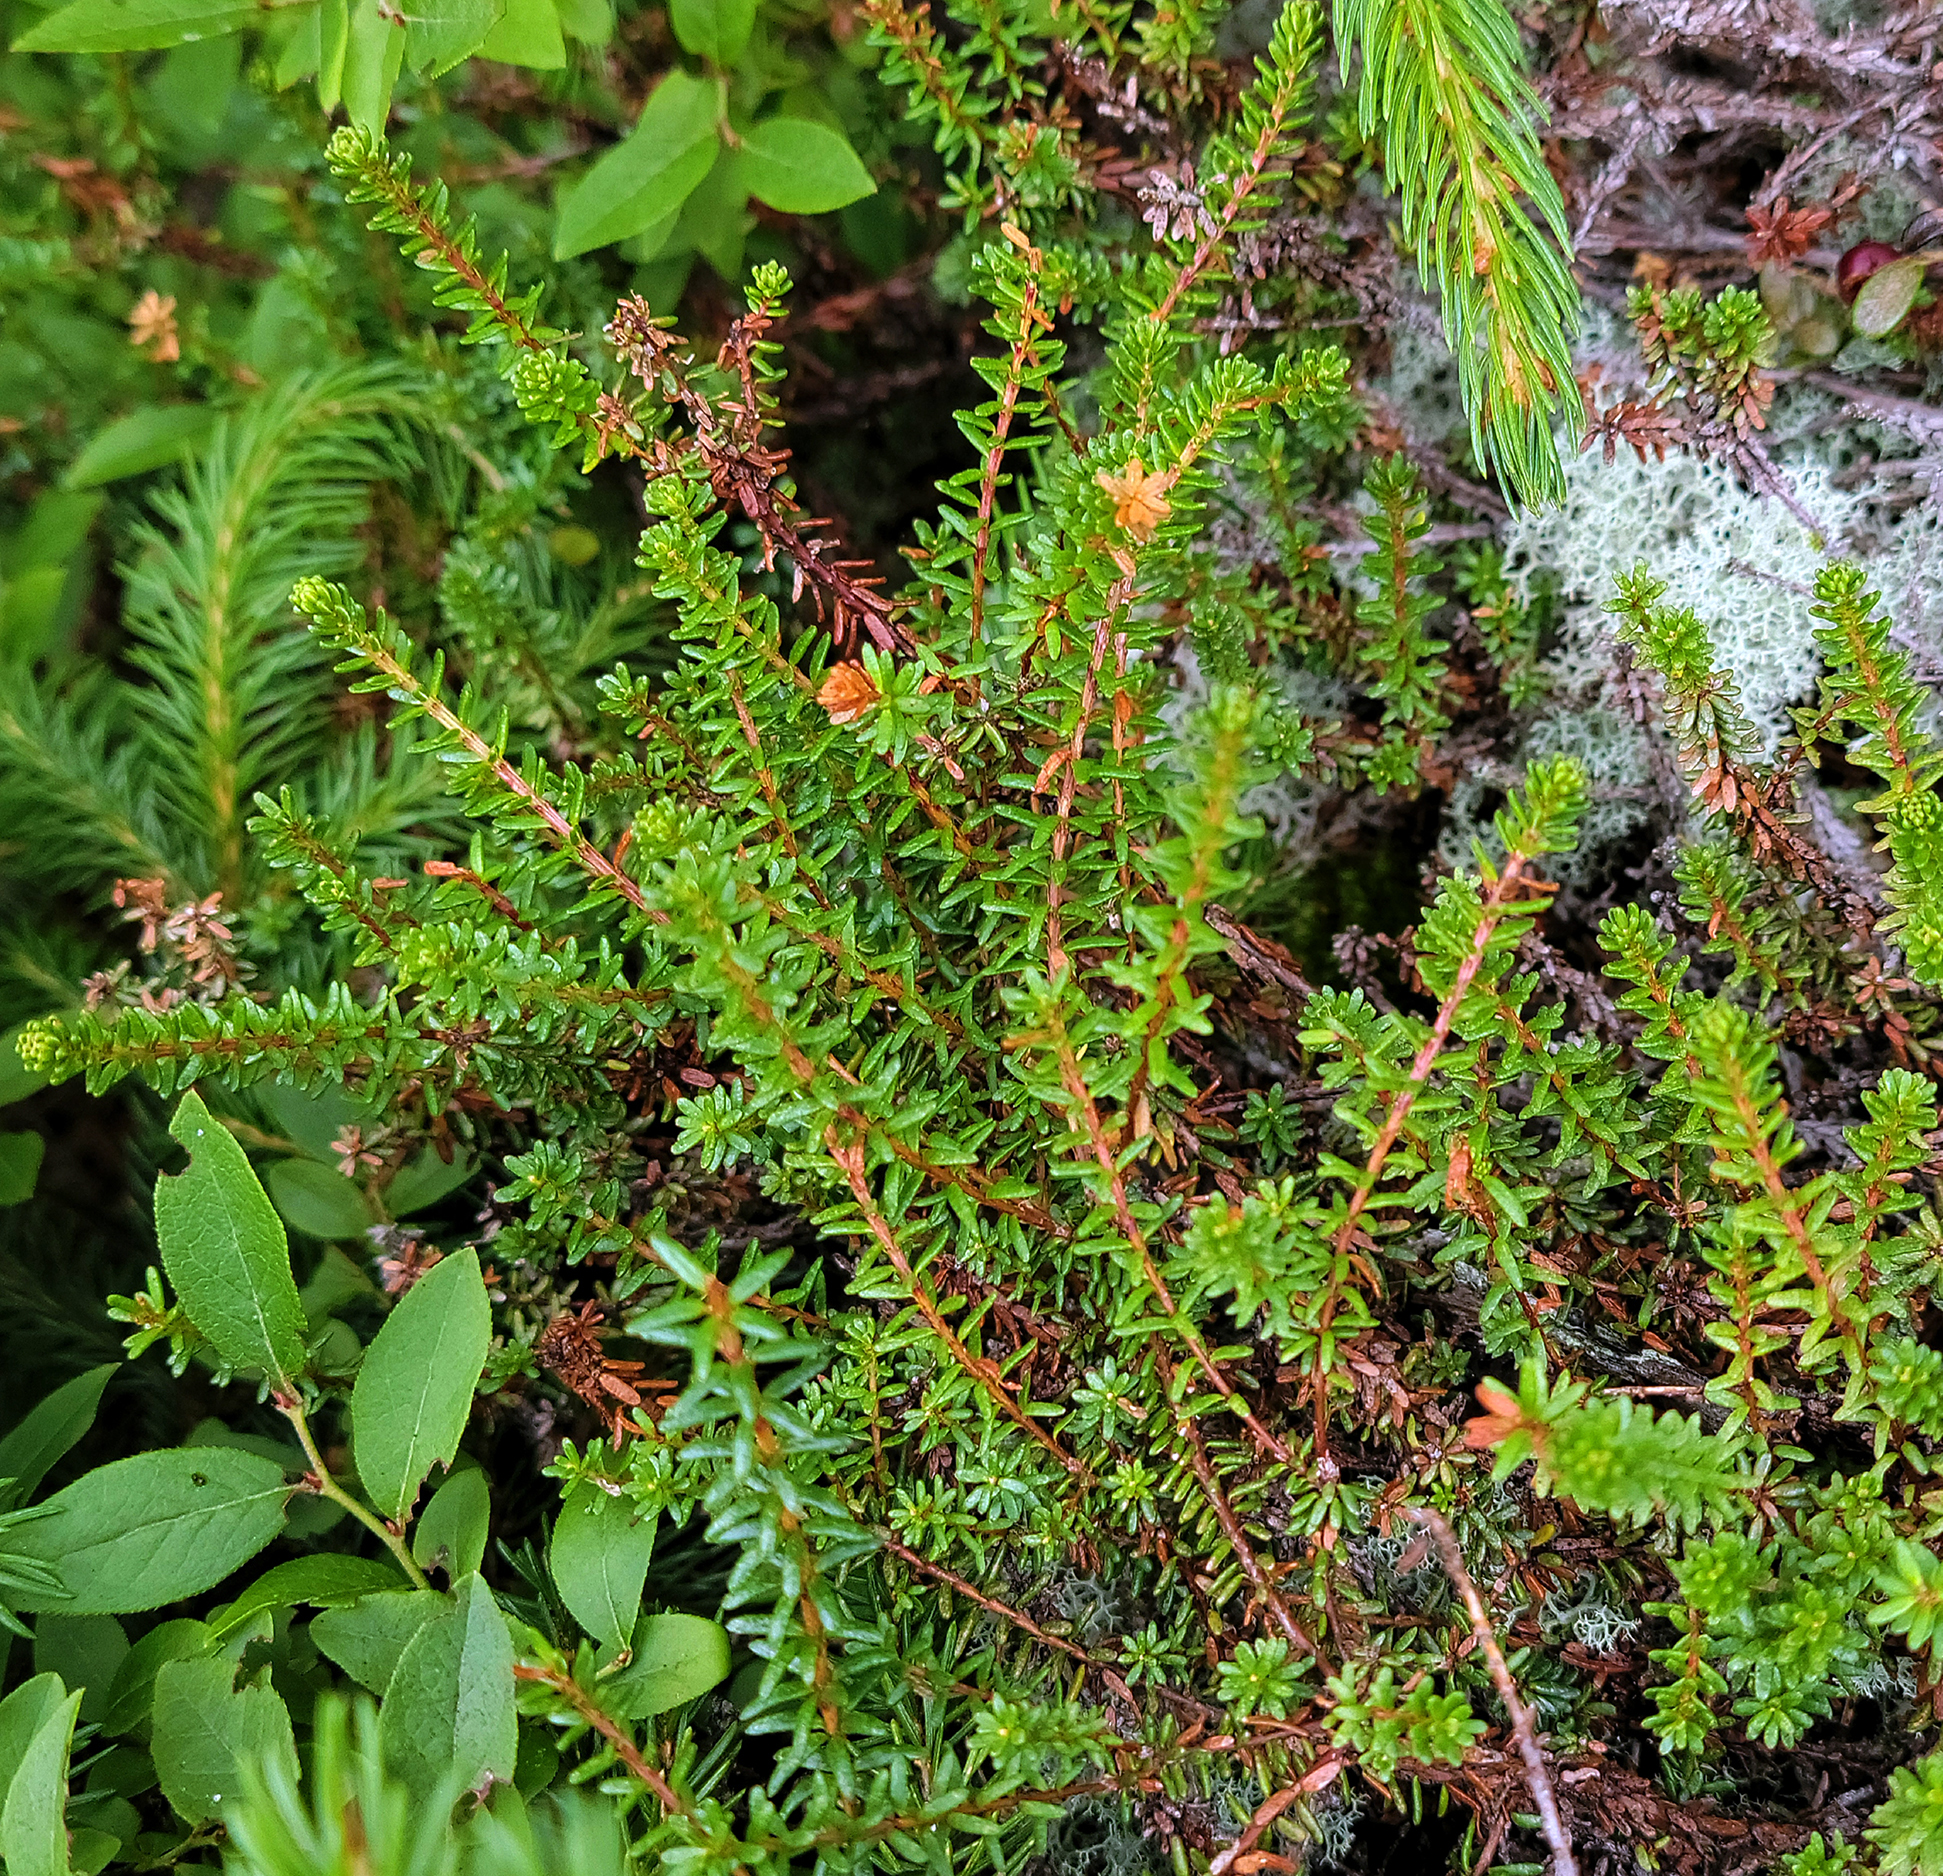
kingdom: Plantae
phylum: Tracheophyta
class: Magnoliopsida
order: Ericales
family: Ericaceae
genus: Empetrum
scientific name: Empetrum nigrum
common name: Black crowberry
